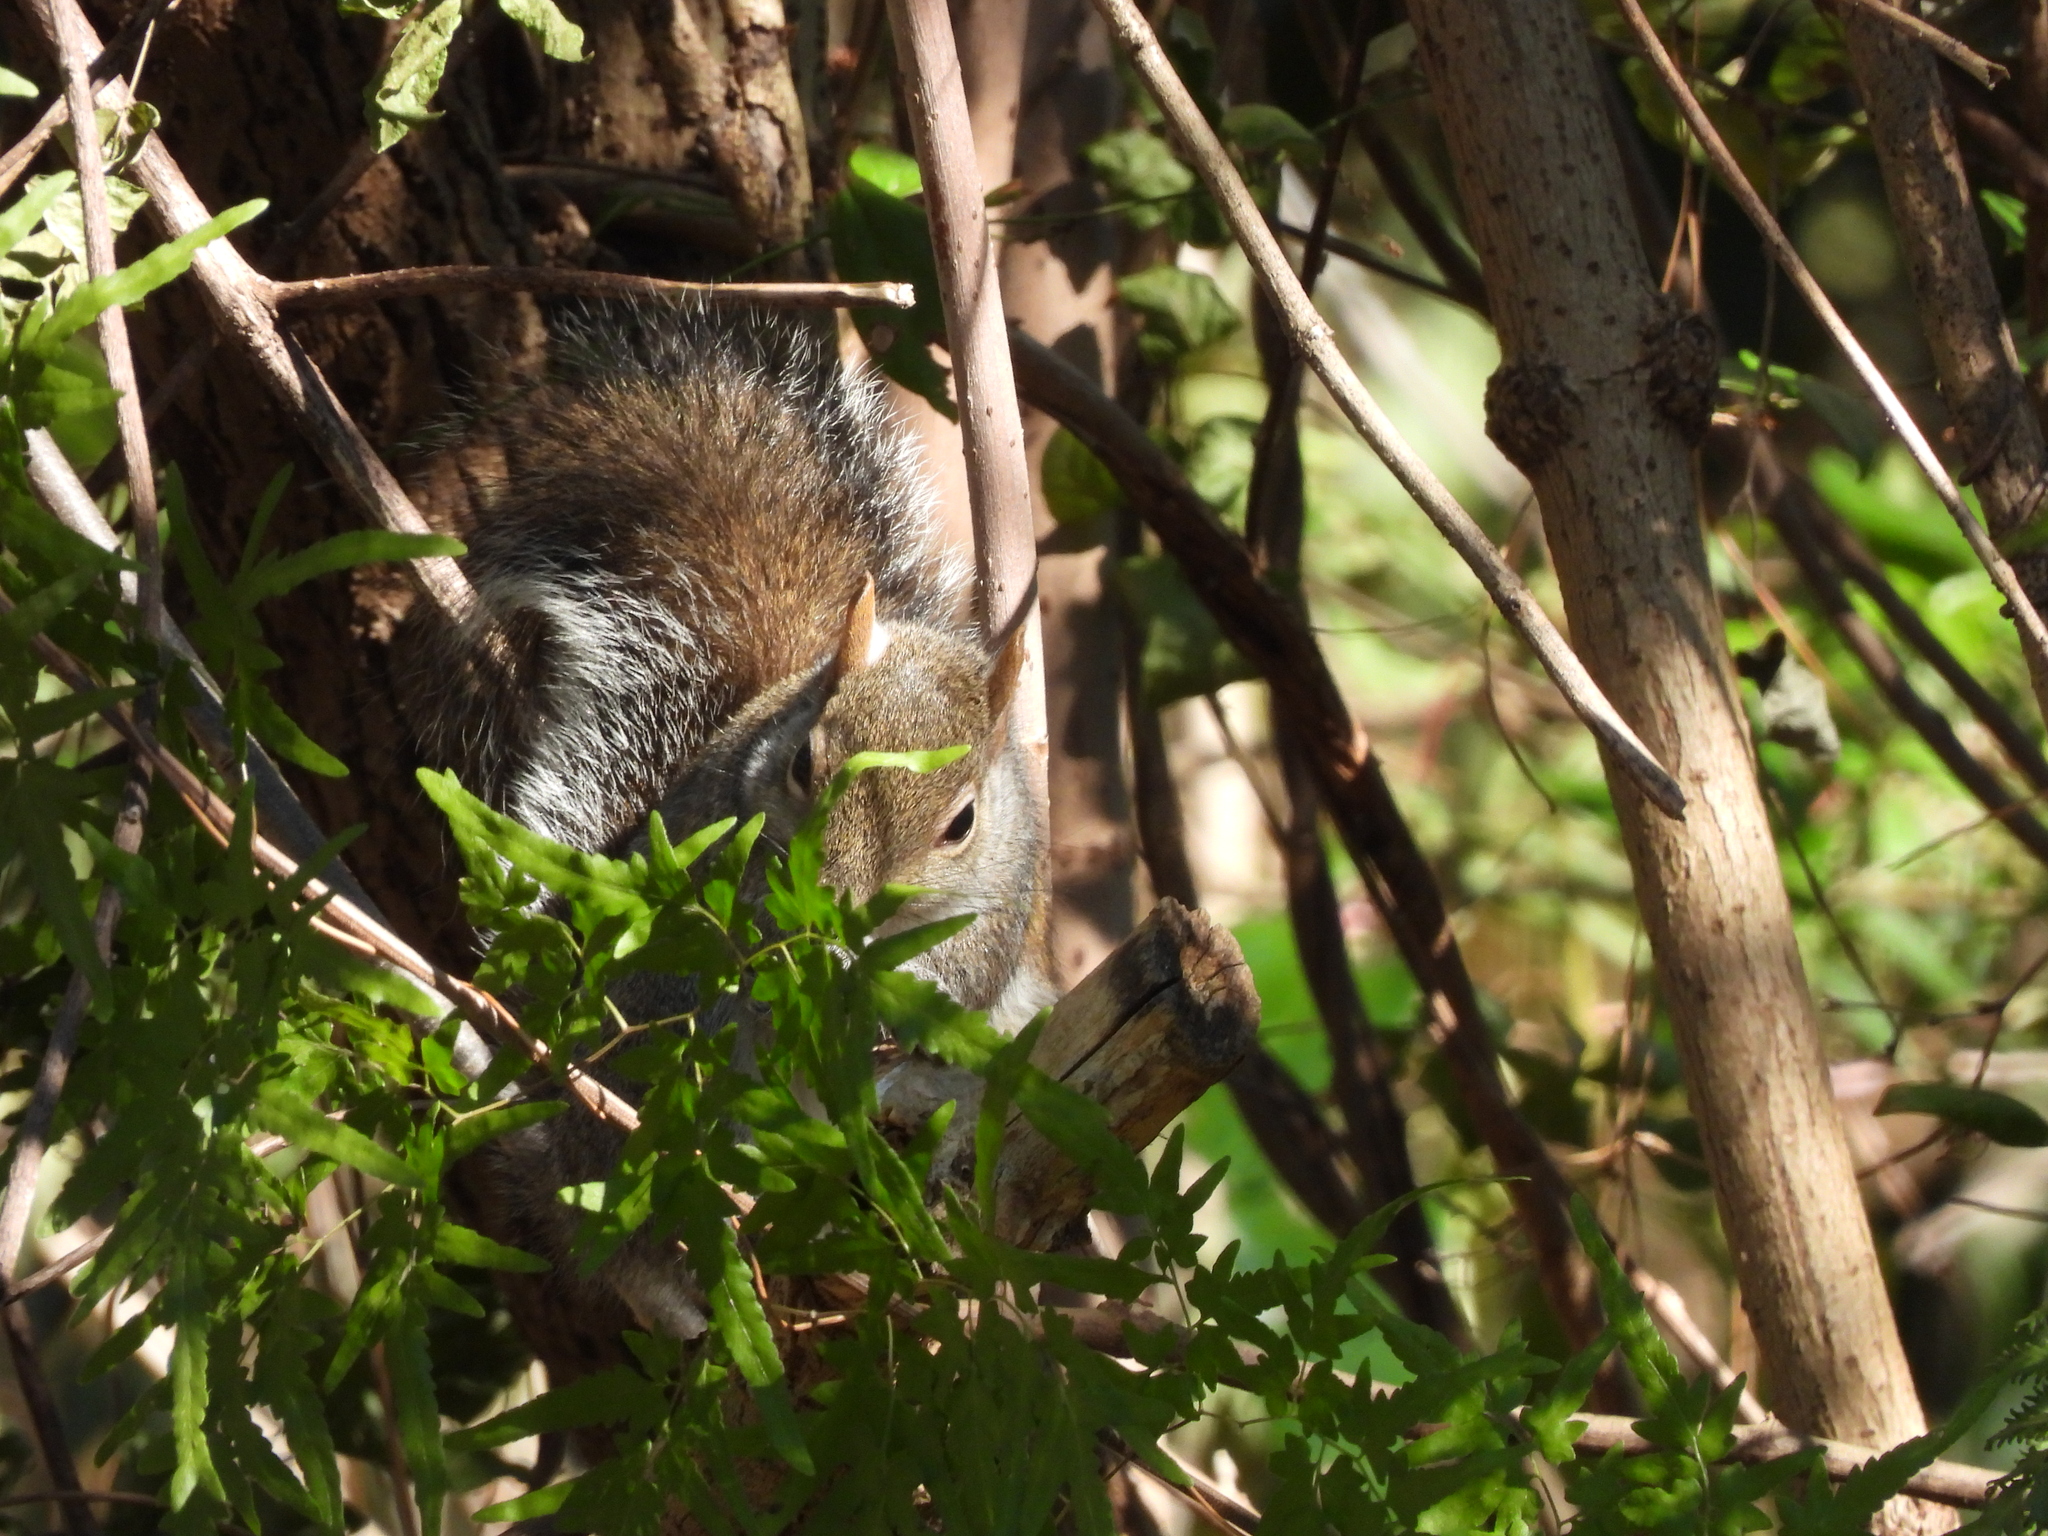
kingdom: Animalia
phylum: Chordata
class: Mammalia
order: Rodentia
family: Sciuridae
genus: Sciurus
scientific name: Sciurus carolinensis
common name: Eastern gray squirrel
